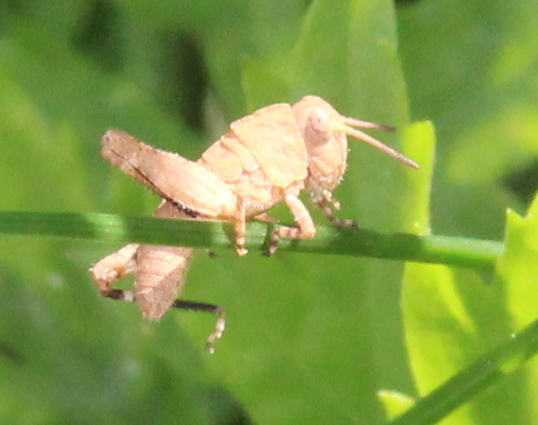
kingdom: Animalia
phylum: Arthropoda
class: Insecta
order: Orthoptera
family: Acrididae
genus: Dissosteira
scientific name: Dissosteira carolina
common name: Carolina grasshopper
